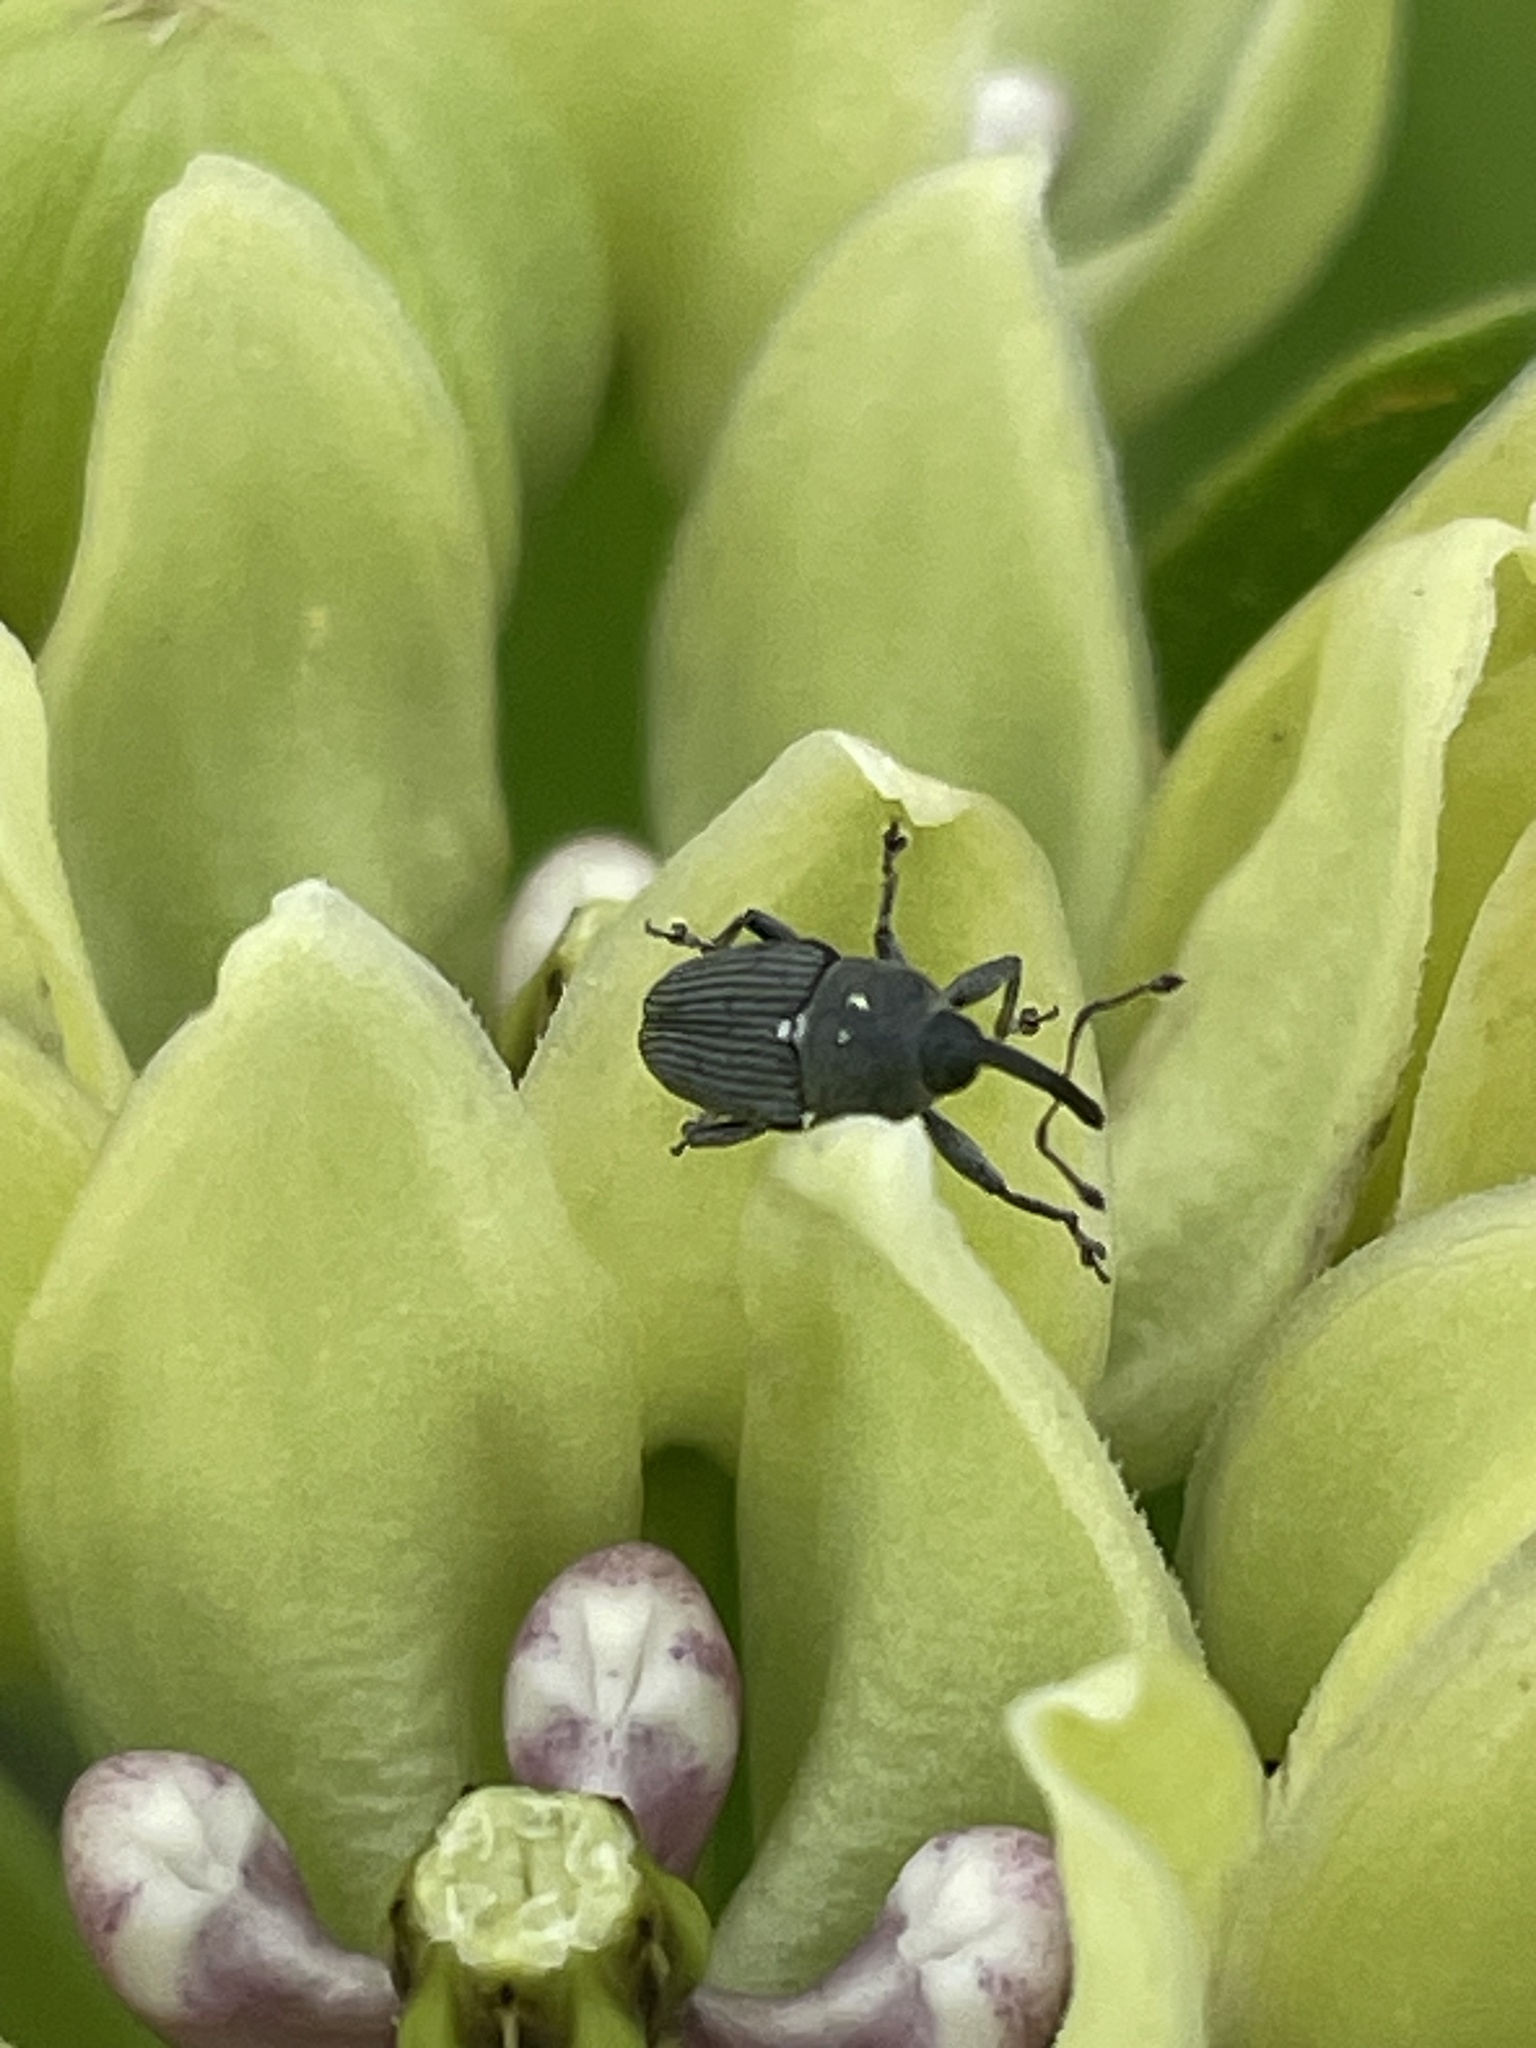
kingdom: Animalia
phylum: Arthropoda
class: Insecta
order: Coleoptera
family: Curculionidae
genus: Odontocorynus
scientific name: Odontocorynus salebrosus
